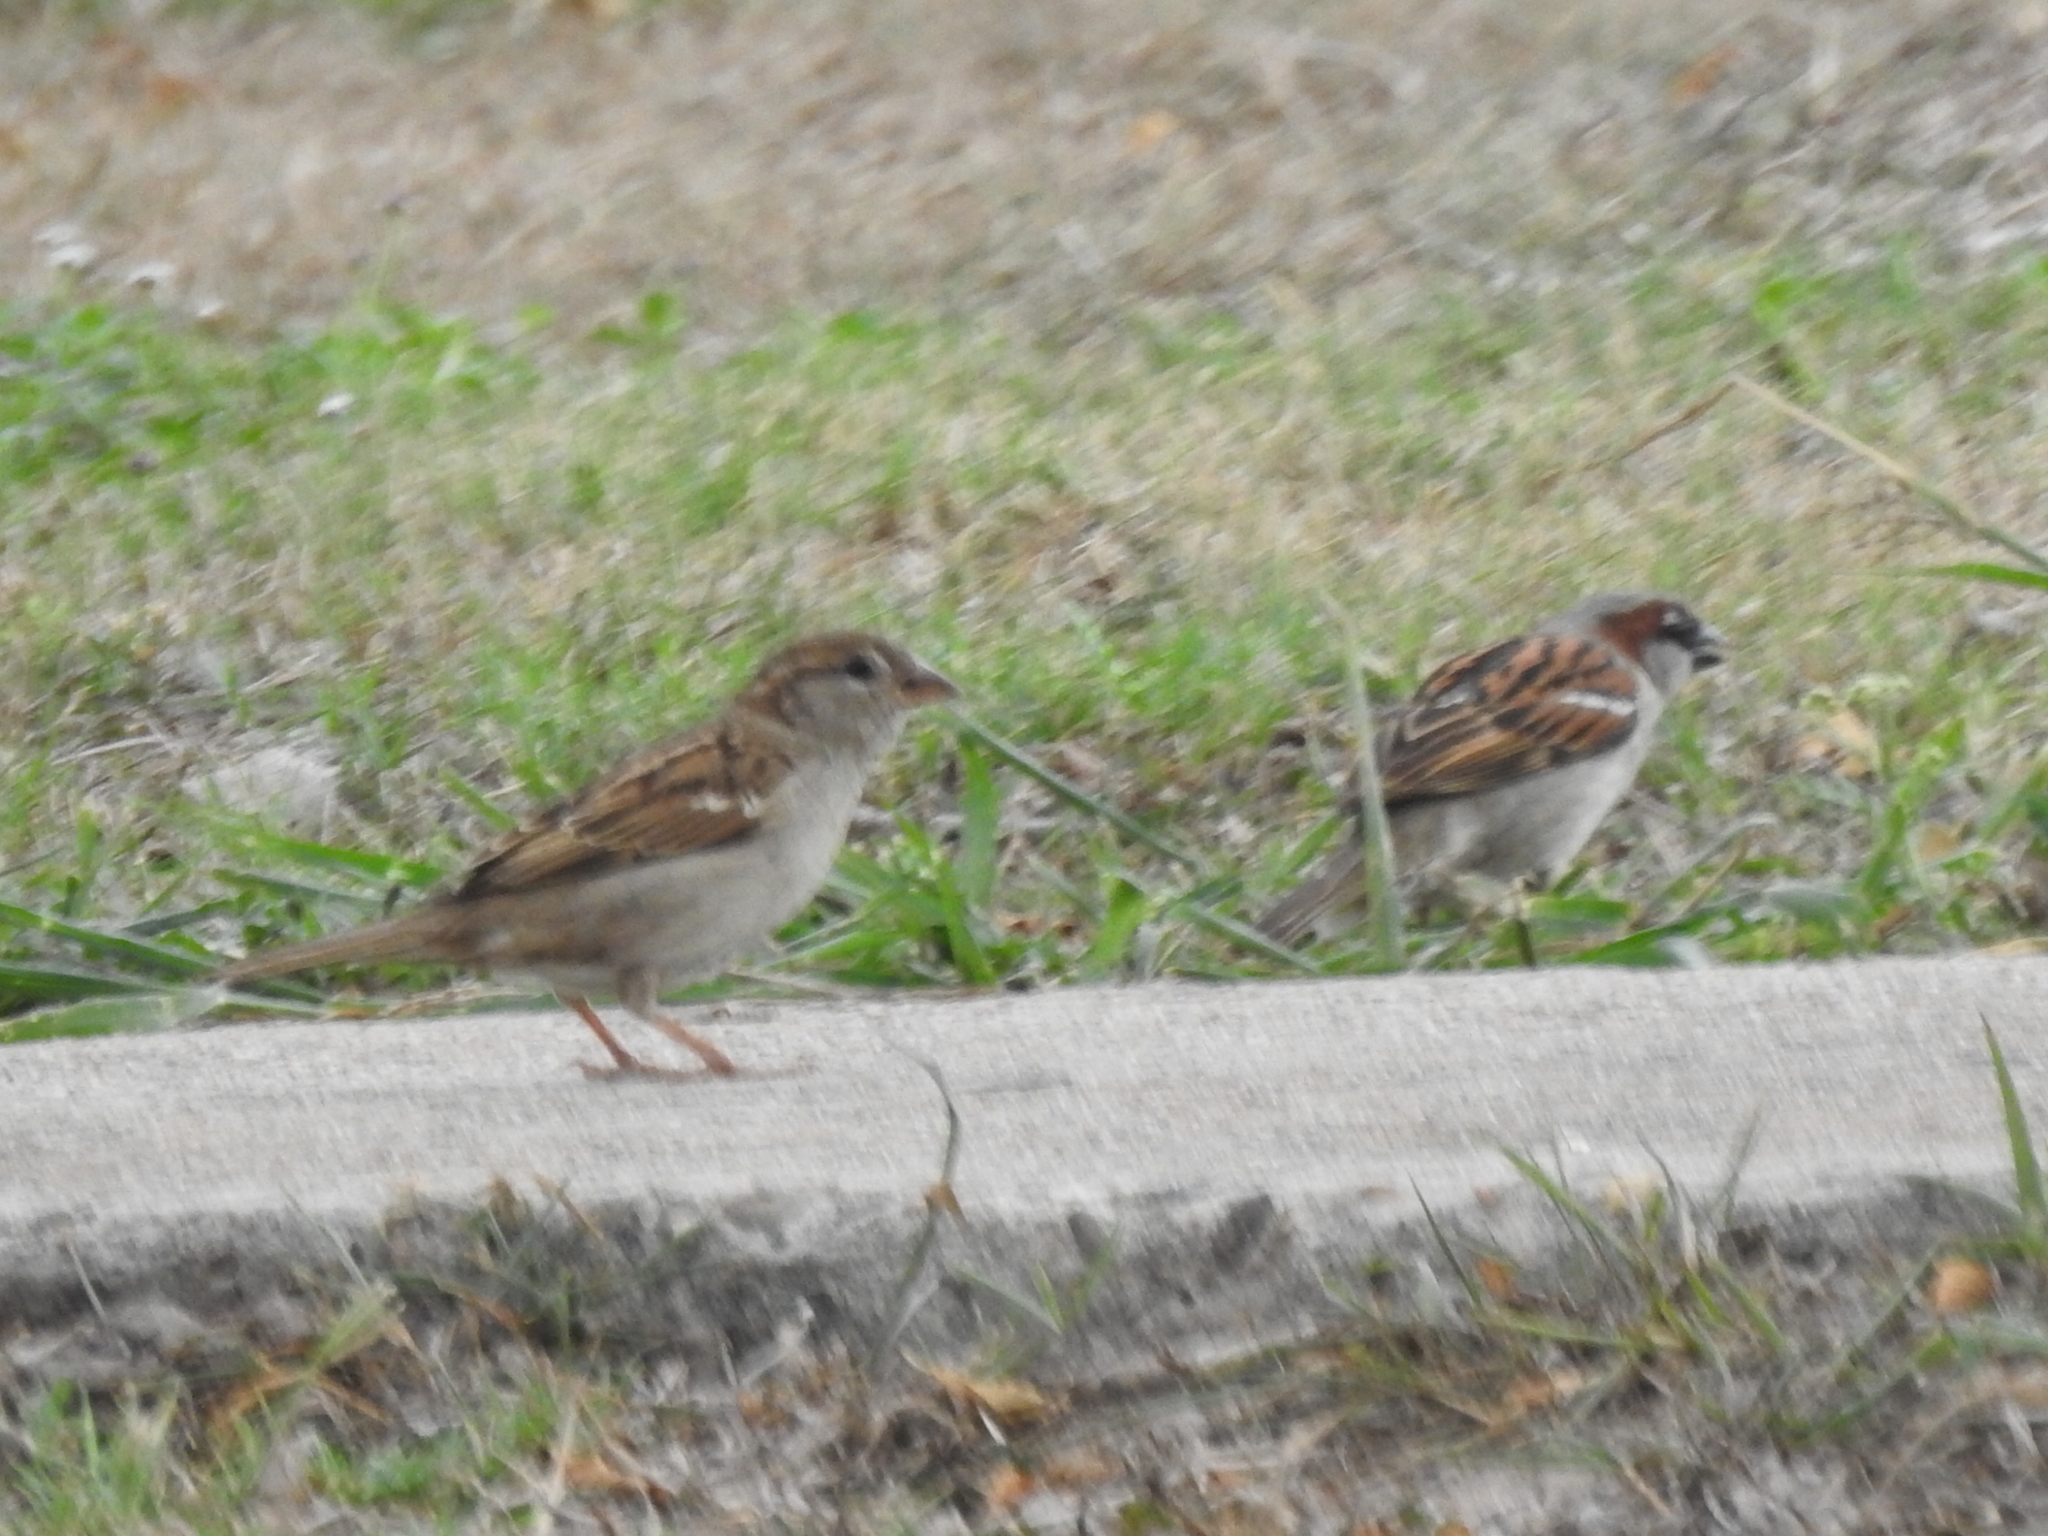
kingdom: Animalia
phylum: Chordata
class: Aves
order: Passeriformes
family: Passeridae
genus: Passer
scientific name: Passer domesticus
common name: House sparrow
